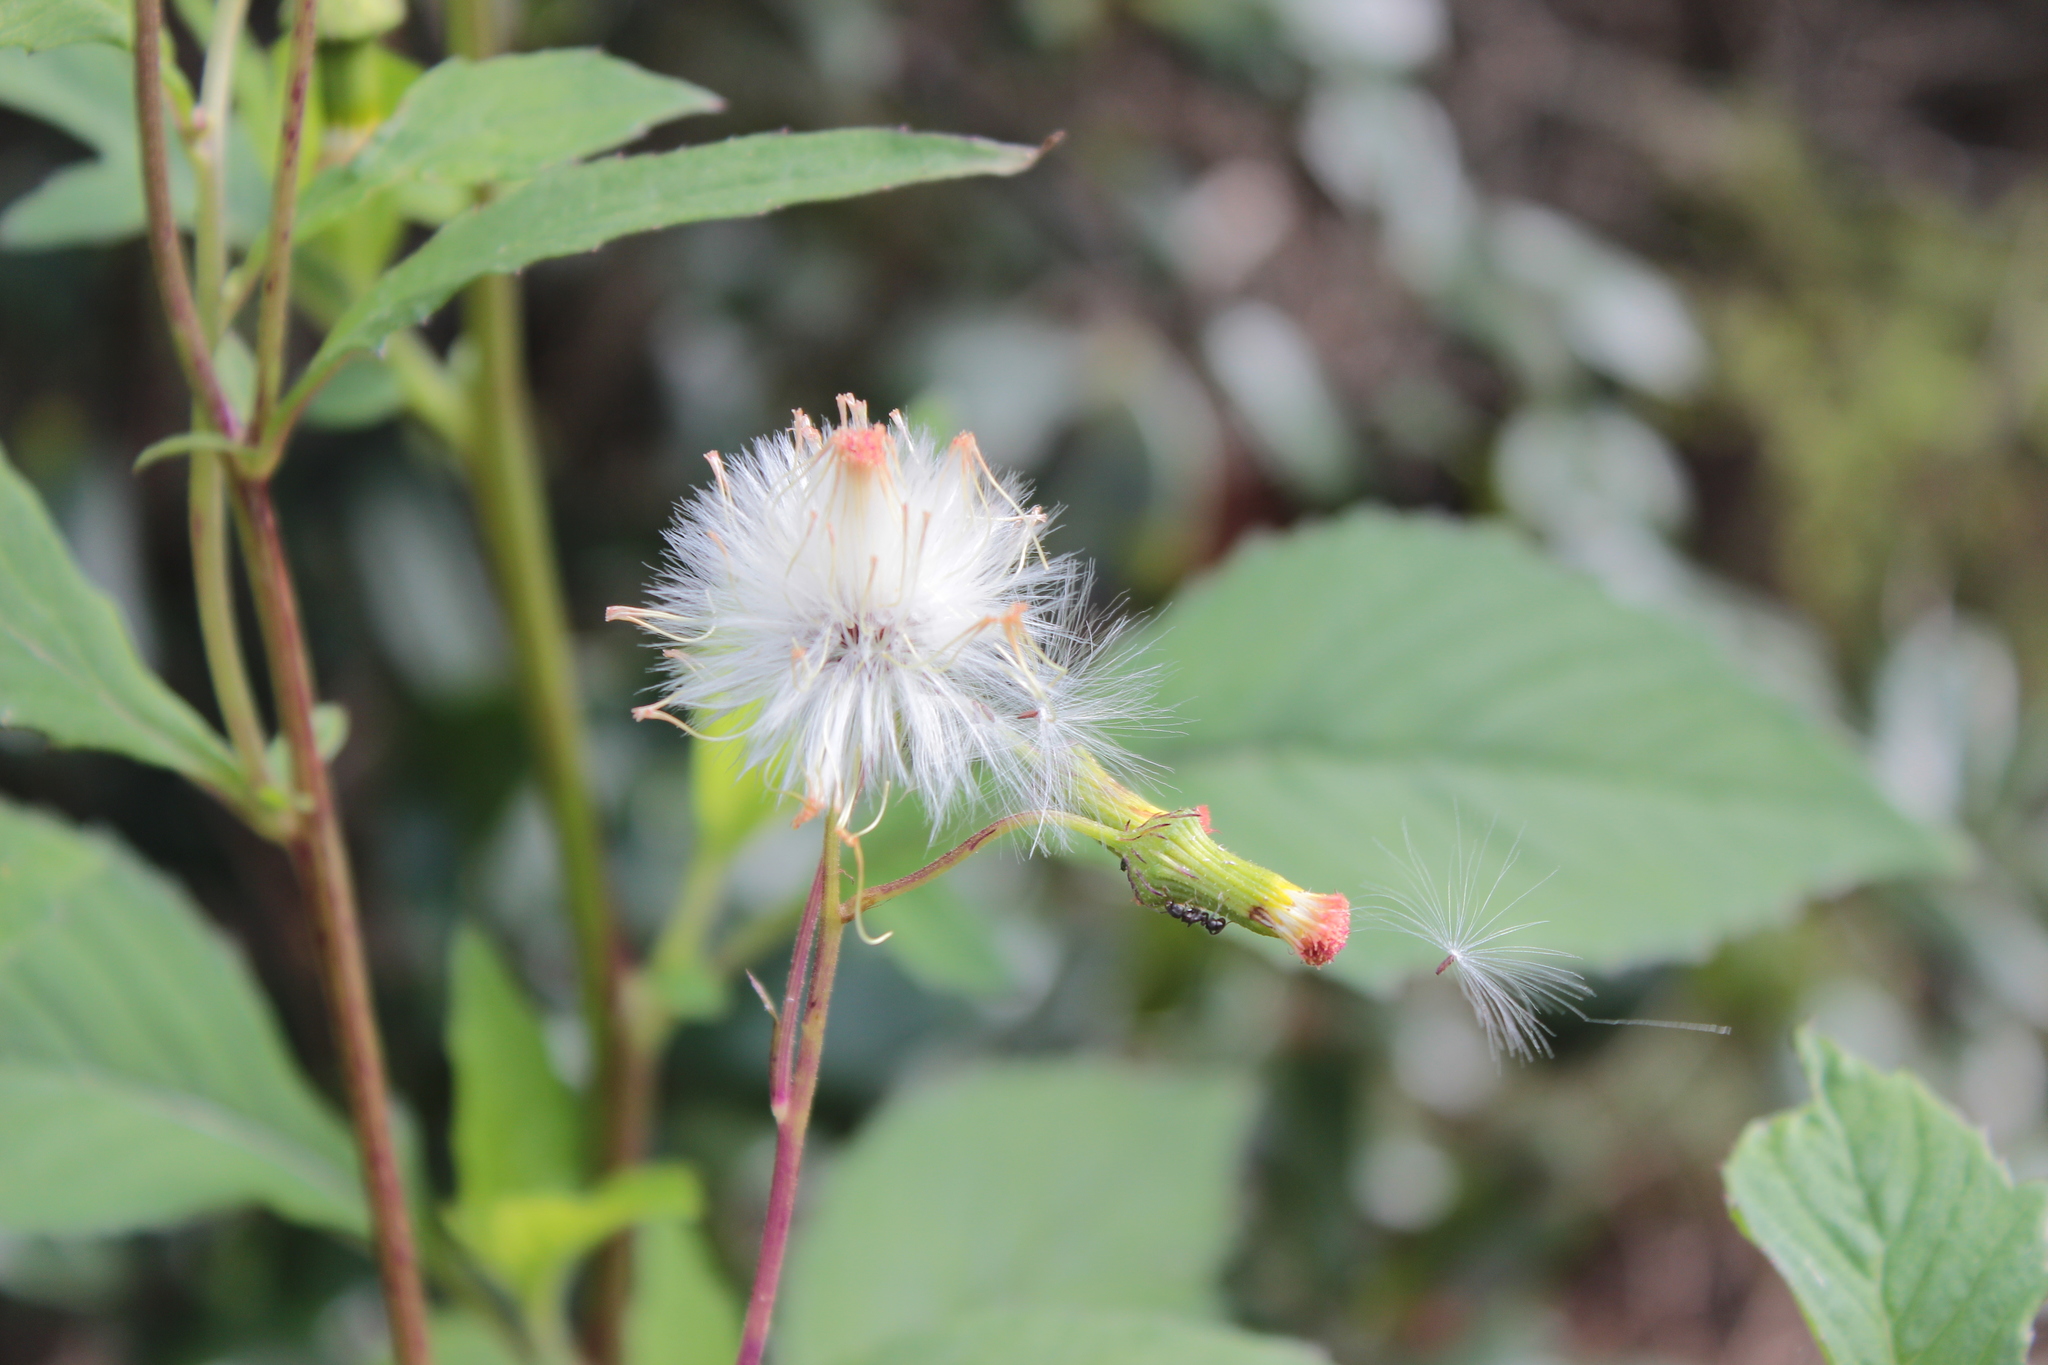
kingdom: Plantae
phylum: Tracheophyta
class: Magnoliopsida
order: Asterales
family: Asteraceae
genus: Crassocephalum
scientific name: Crassocephalum crepidioides
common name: Redflower ragleaf
